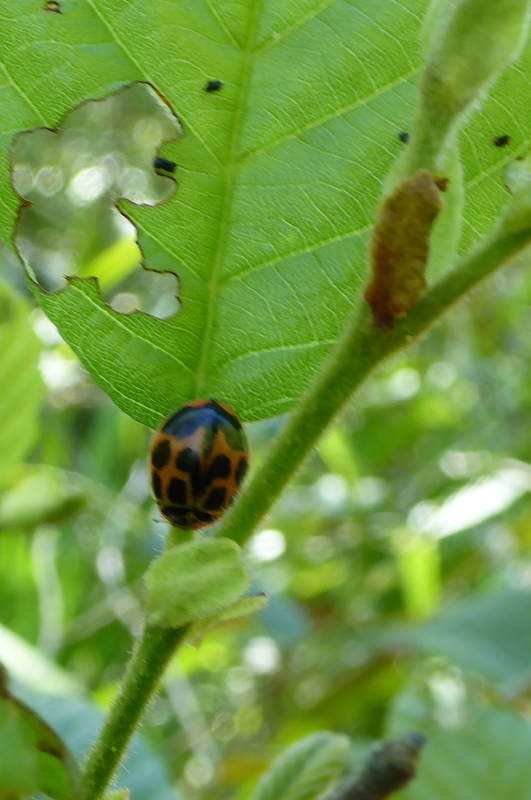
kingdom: Animalia
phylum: Arthropoda
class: Insecta
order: Coleoptera
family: Coccinellidae
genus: Harmonia
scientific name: Harmonia axyridis
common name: Harlequin ladybird
